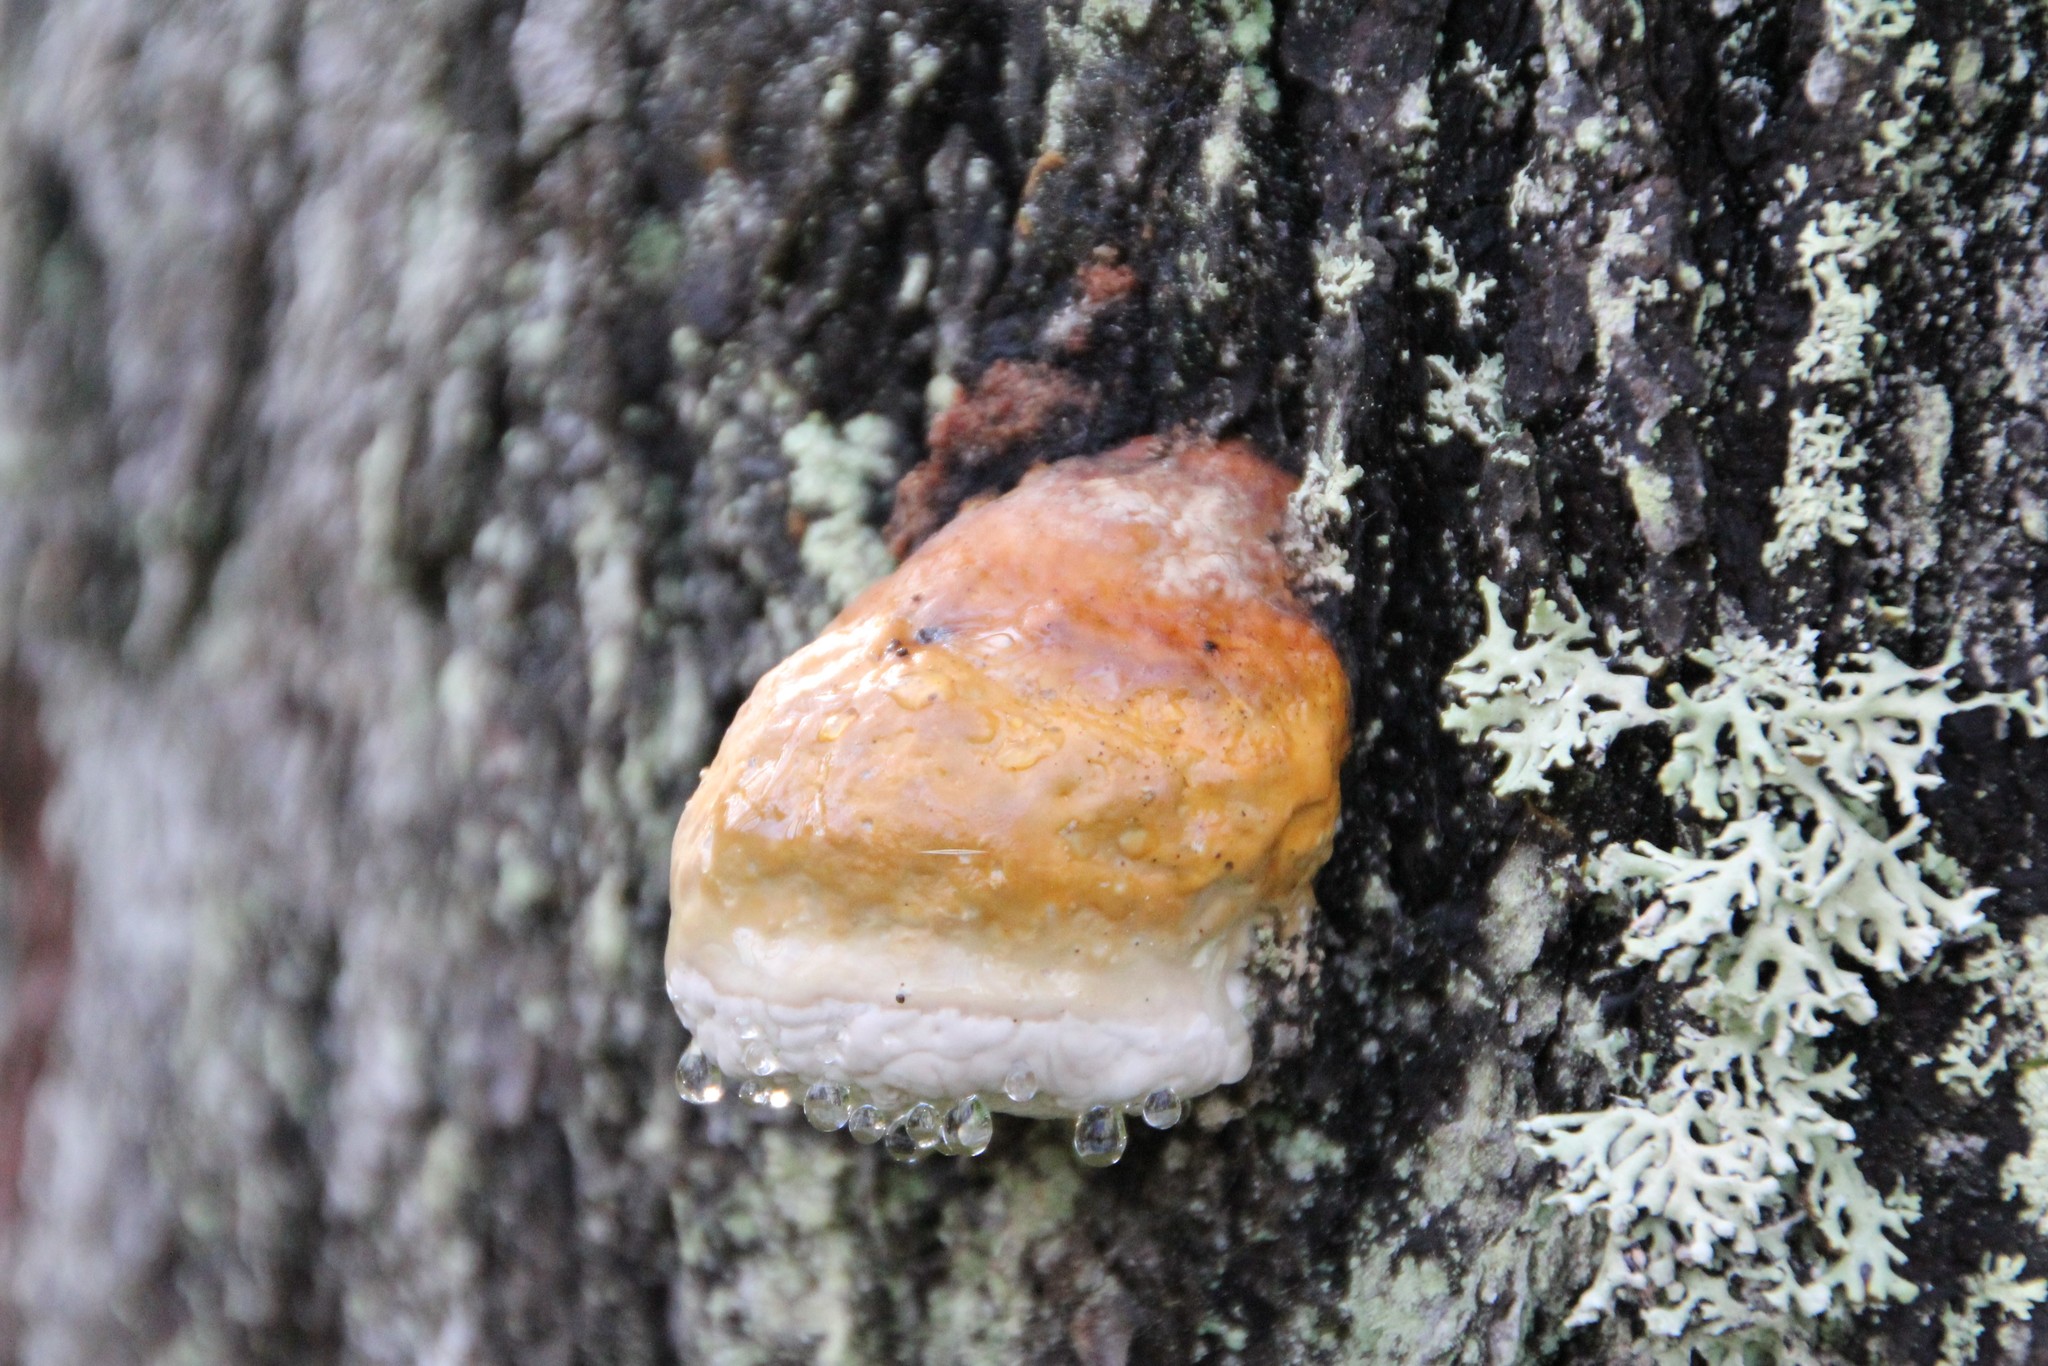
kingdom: Fungi
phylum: Basidiomycota
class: Agaricomycetes
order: Polyporales
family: Fomitopsidaceae
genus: Fomitopsis
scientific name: Fomitopsis pinicola
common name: Red-belted bracket
